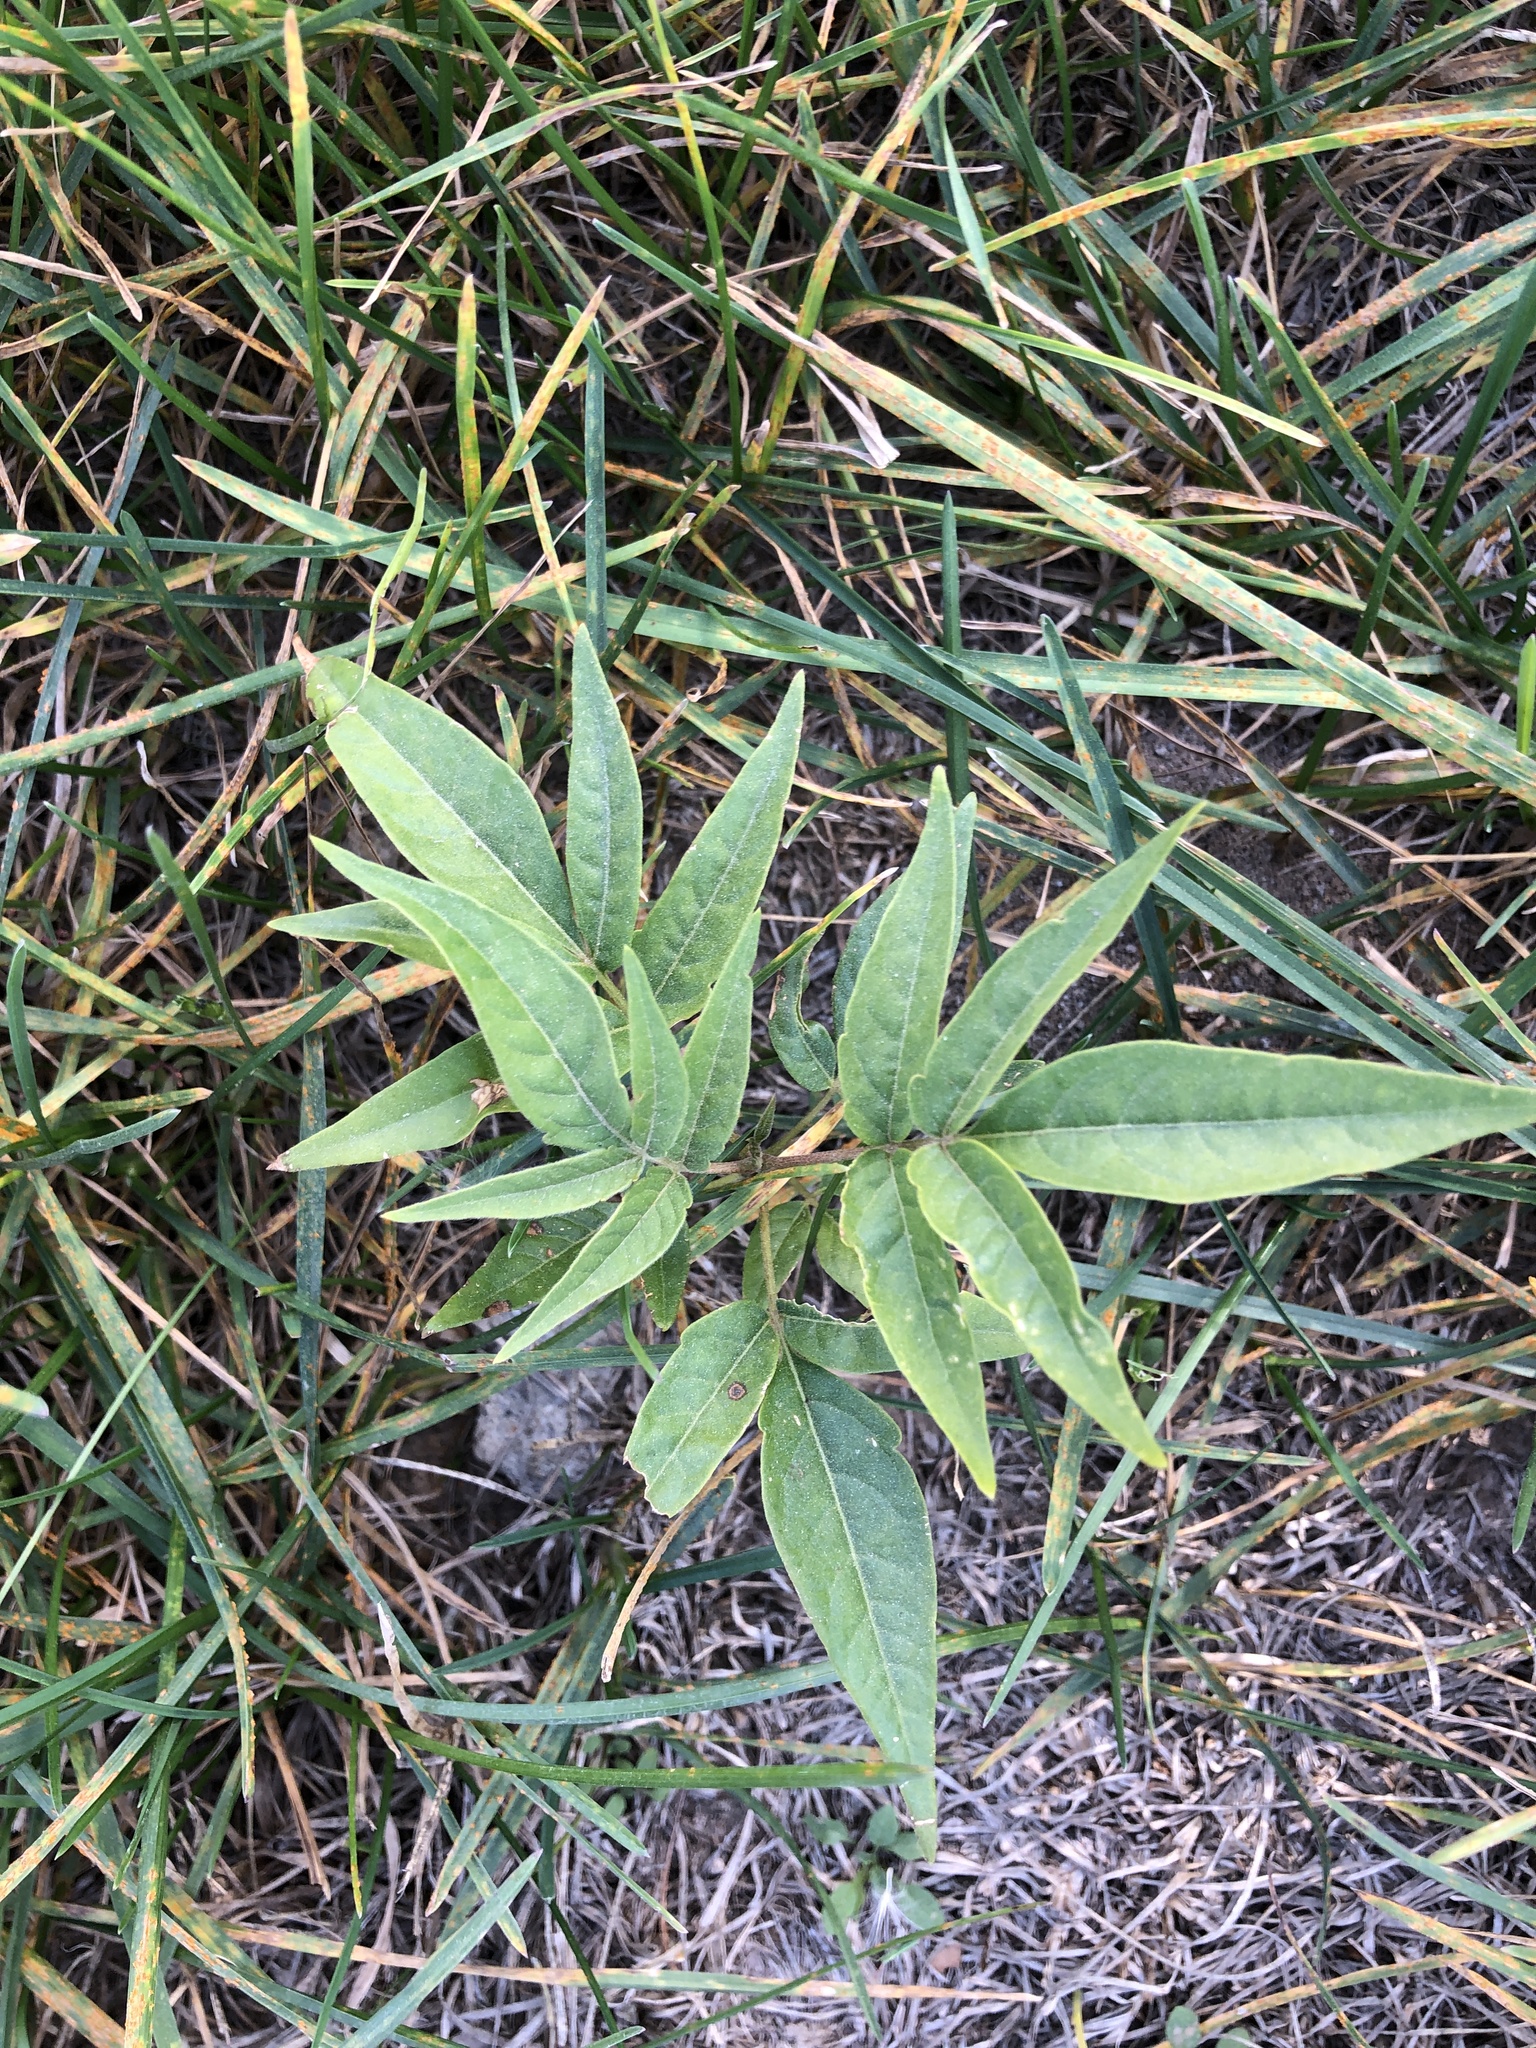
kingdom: Plantae
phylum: Tracheophyta
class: Magnoliopsida
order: Sapindales
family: Simaroubaceae
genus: Ailanthus
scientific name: Ailanthus altissima
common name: Tree-of-heaven
